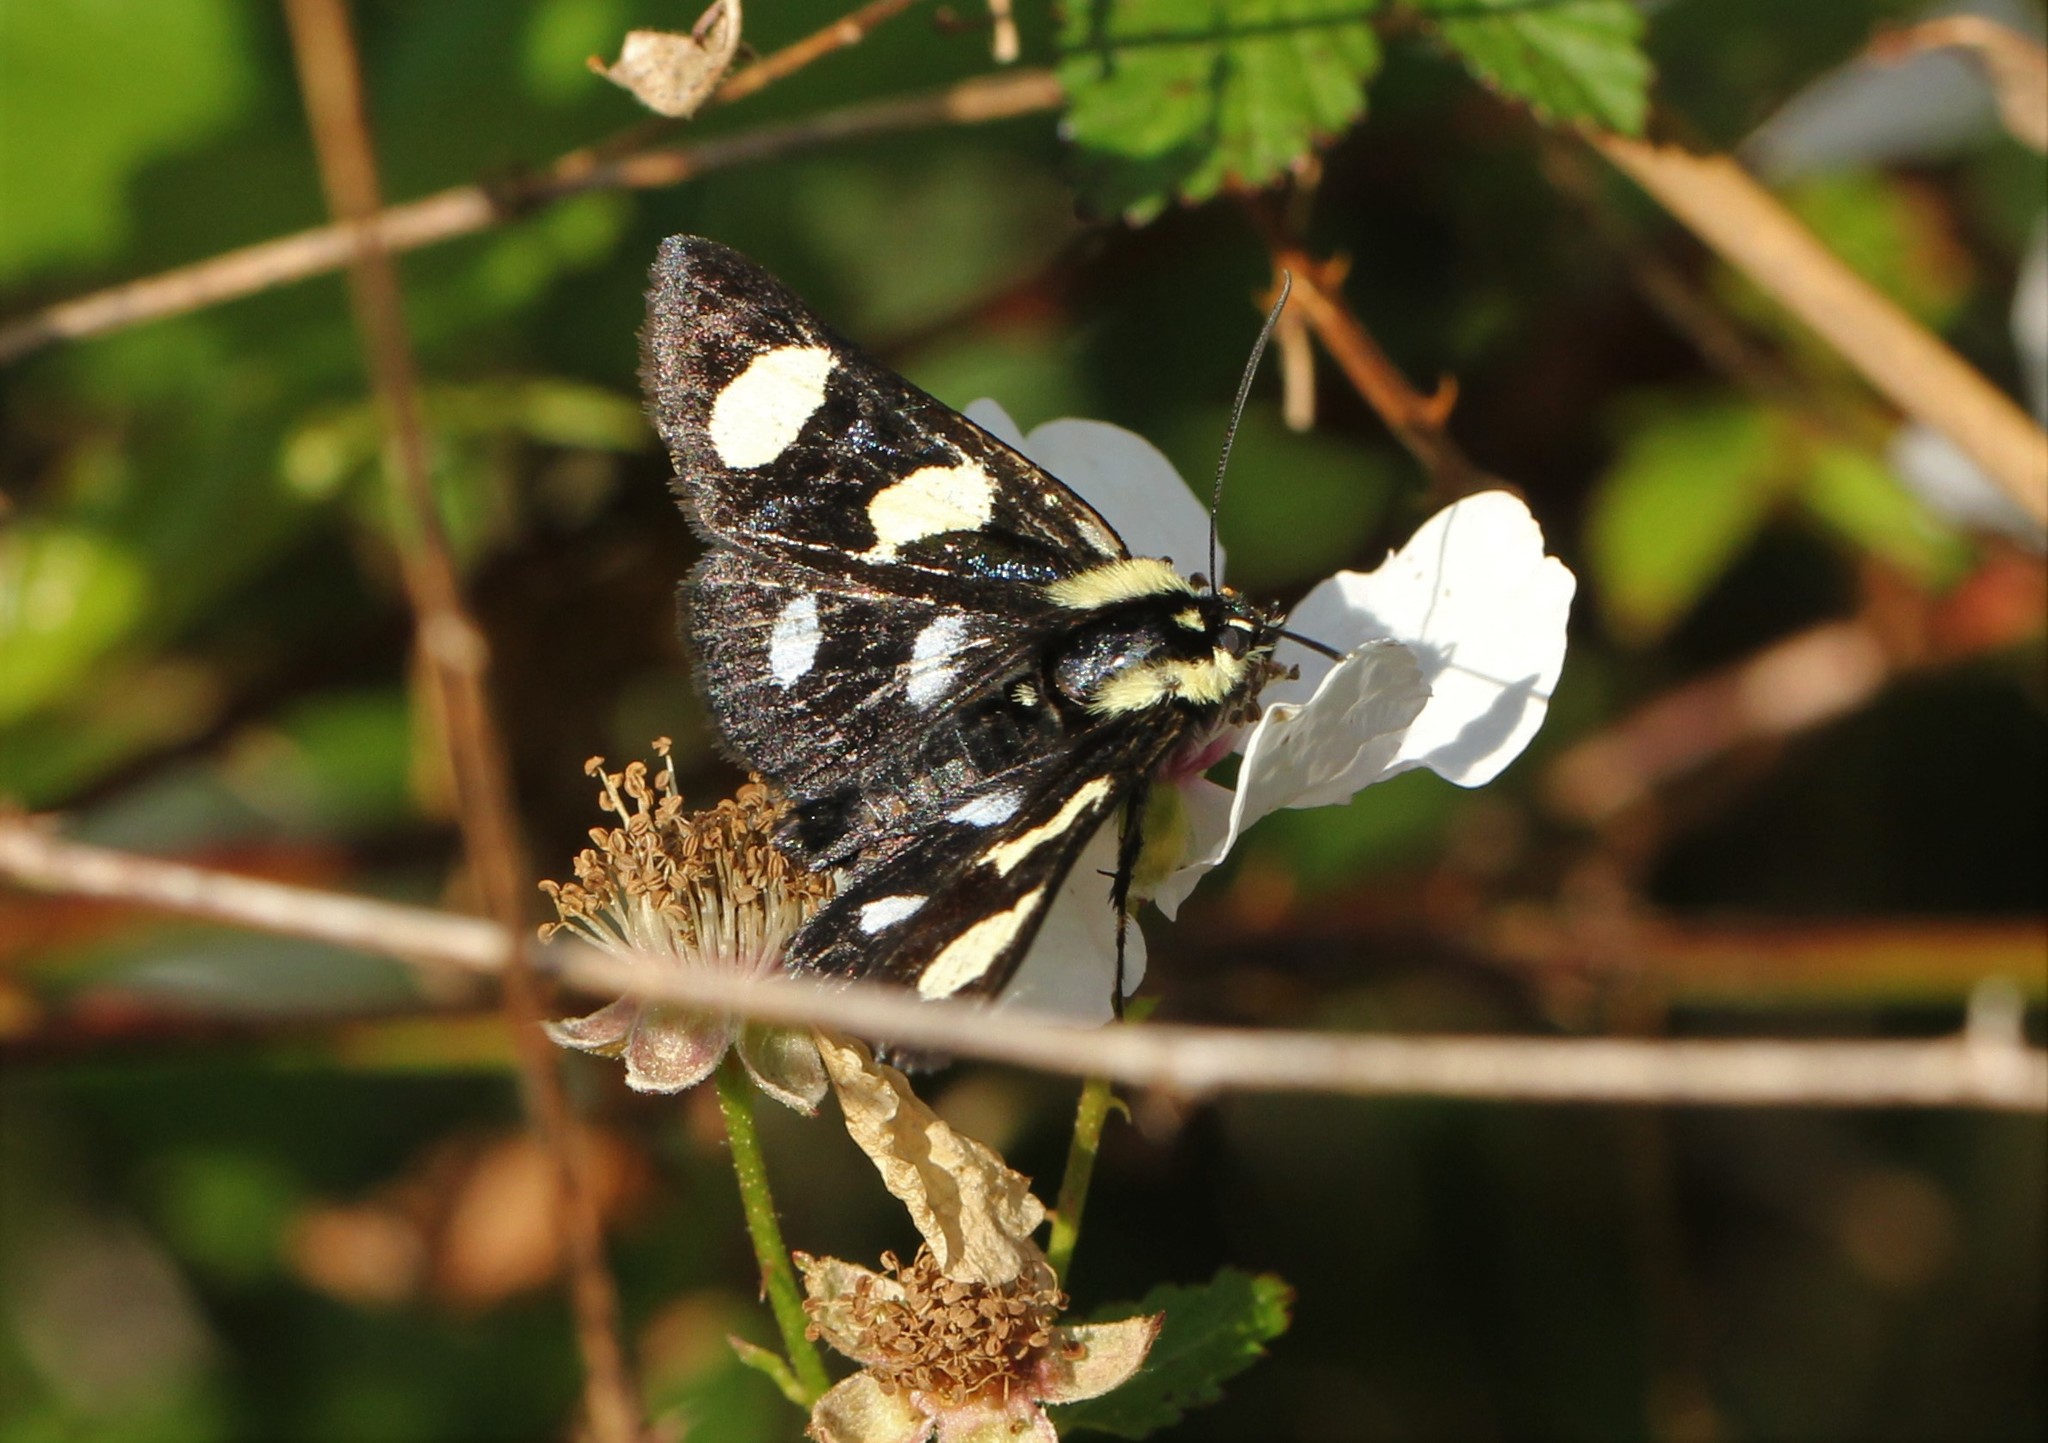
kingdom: Animalia
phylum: Arthropoda
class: Insecta
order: Lepidoptera
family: Noctuidae
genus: Alypia
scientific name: Alypia octomaculata
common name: Eight-spotted forester
